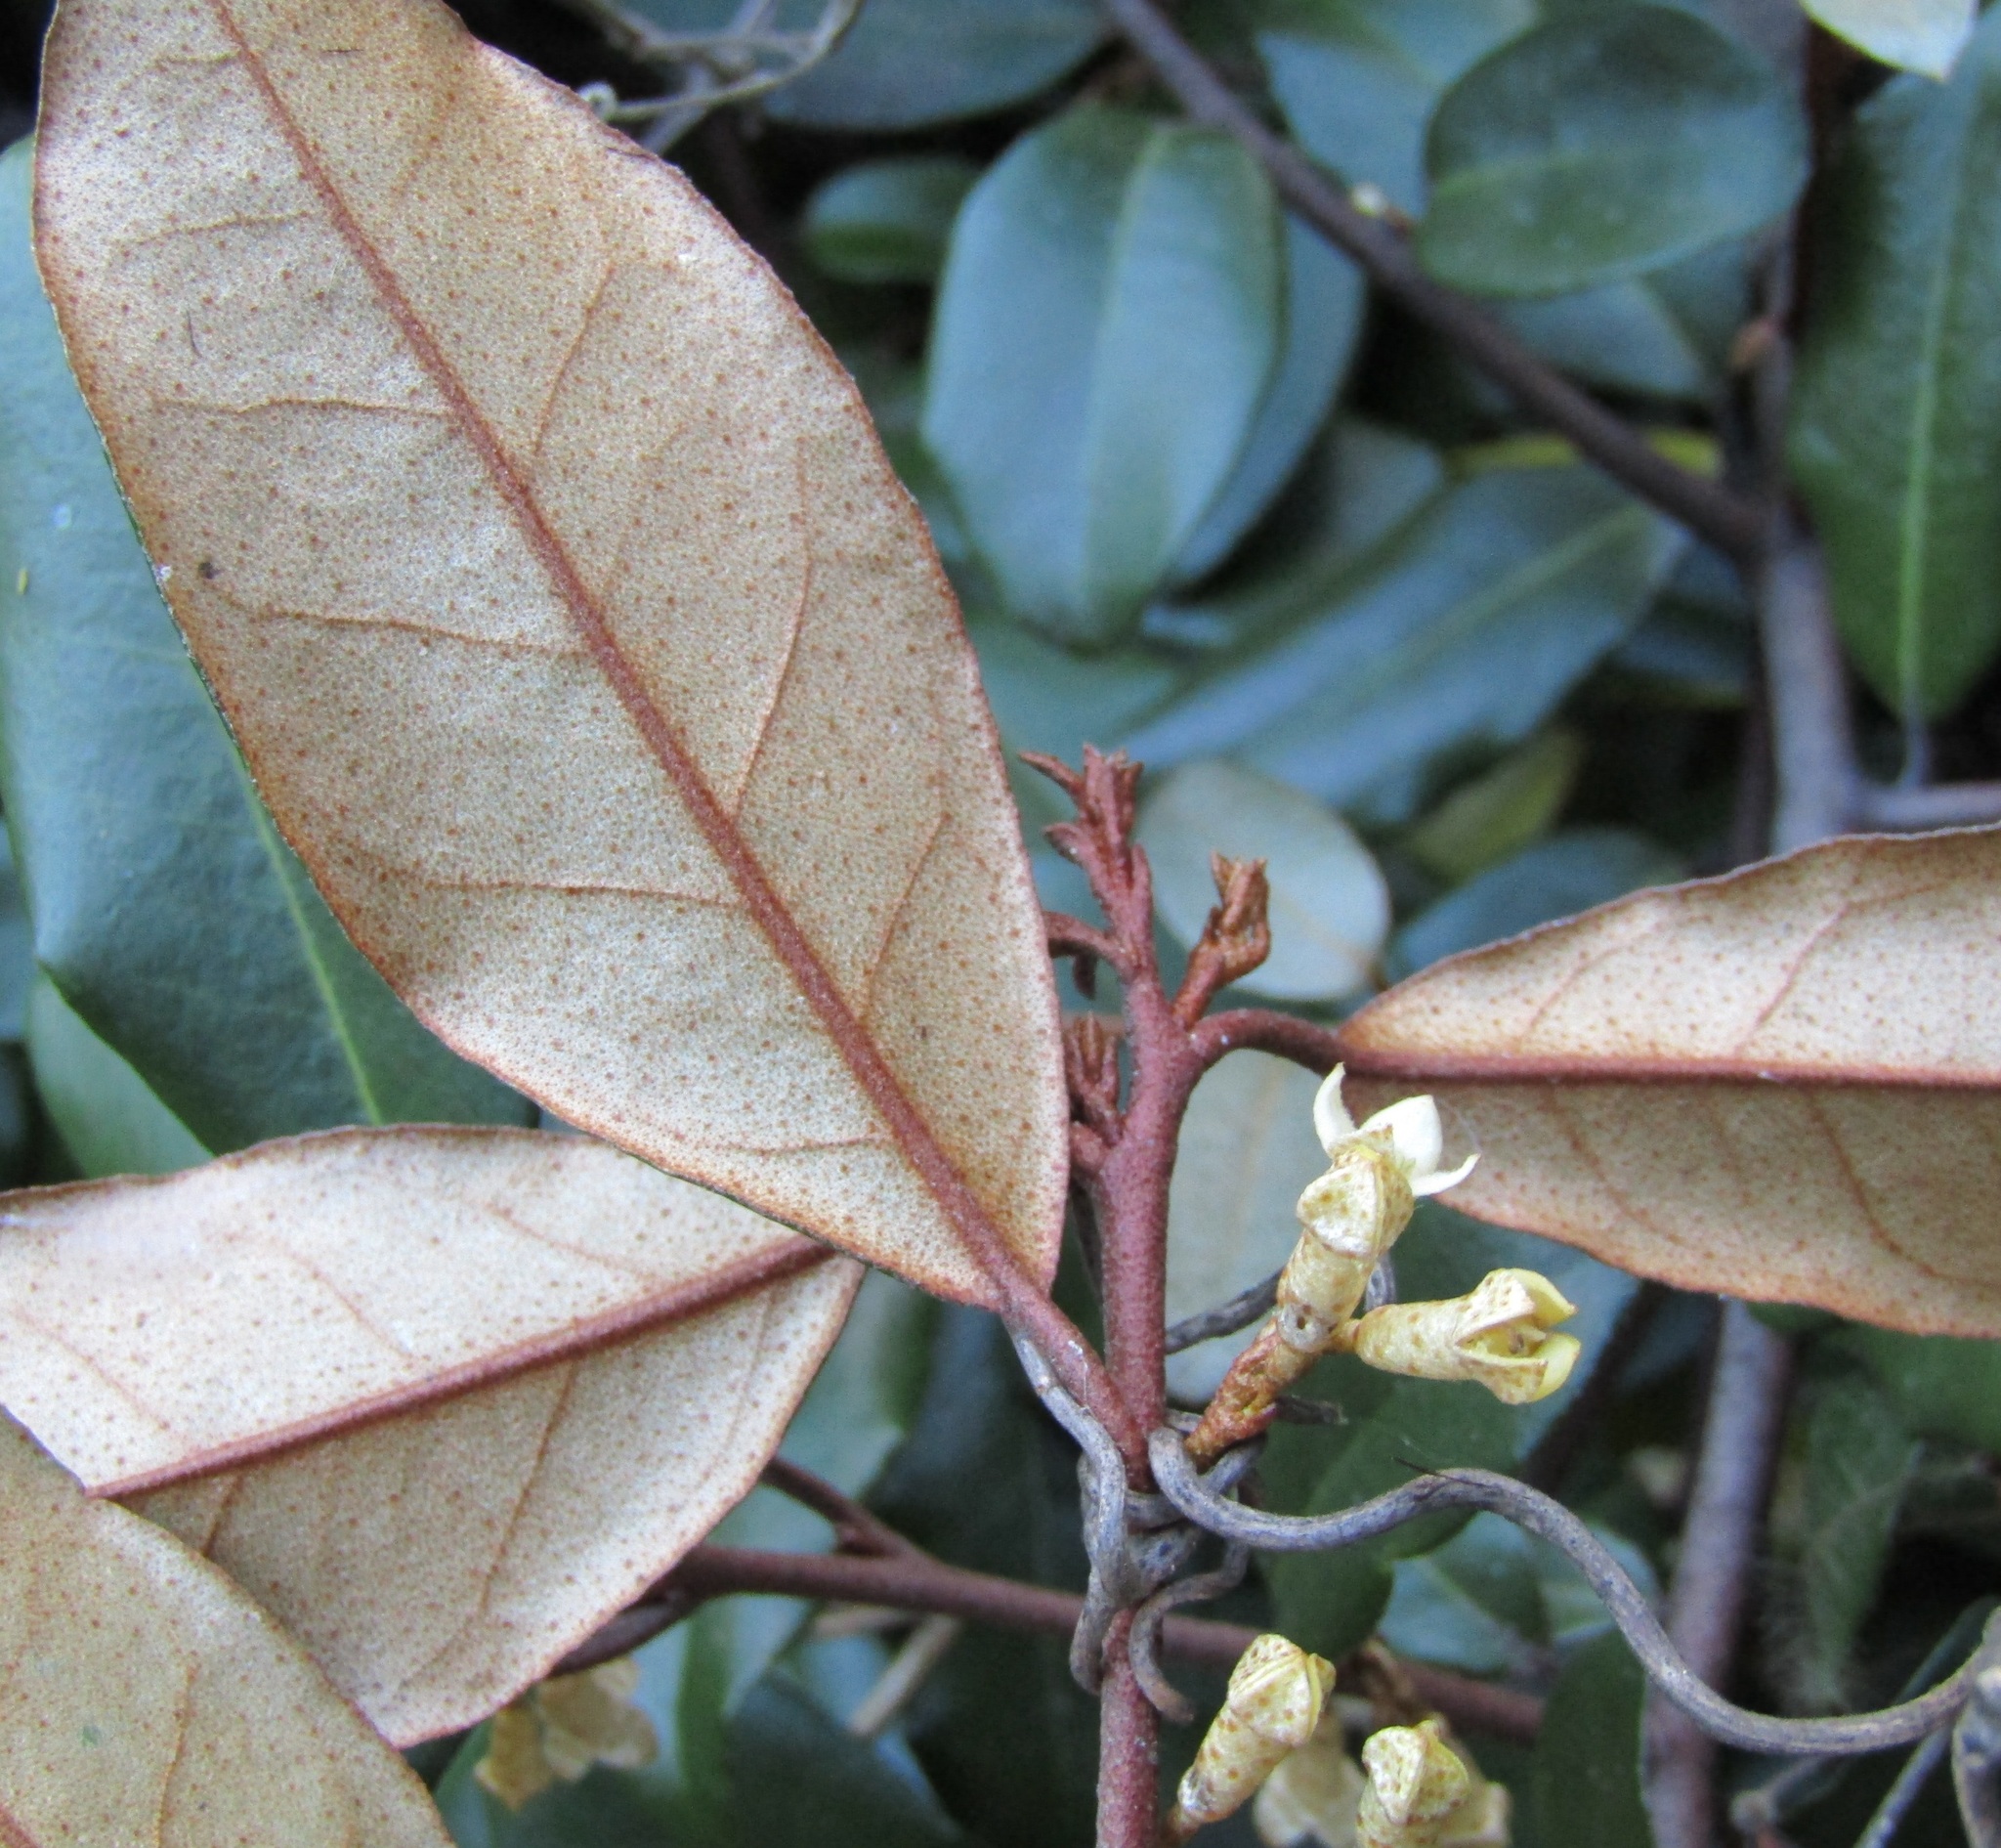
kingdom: Plantae
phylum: Tracheophyta
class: Magnoliopsida
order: Rosales
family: Elaeagnaceae
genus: Elaeagnus
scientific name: Elaeagnus reflexa
